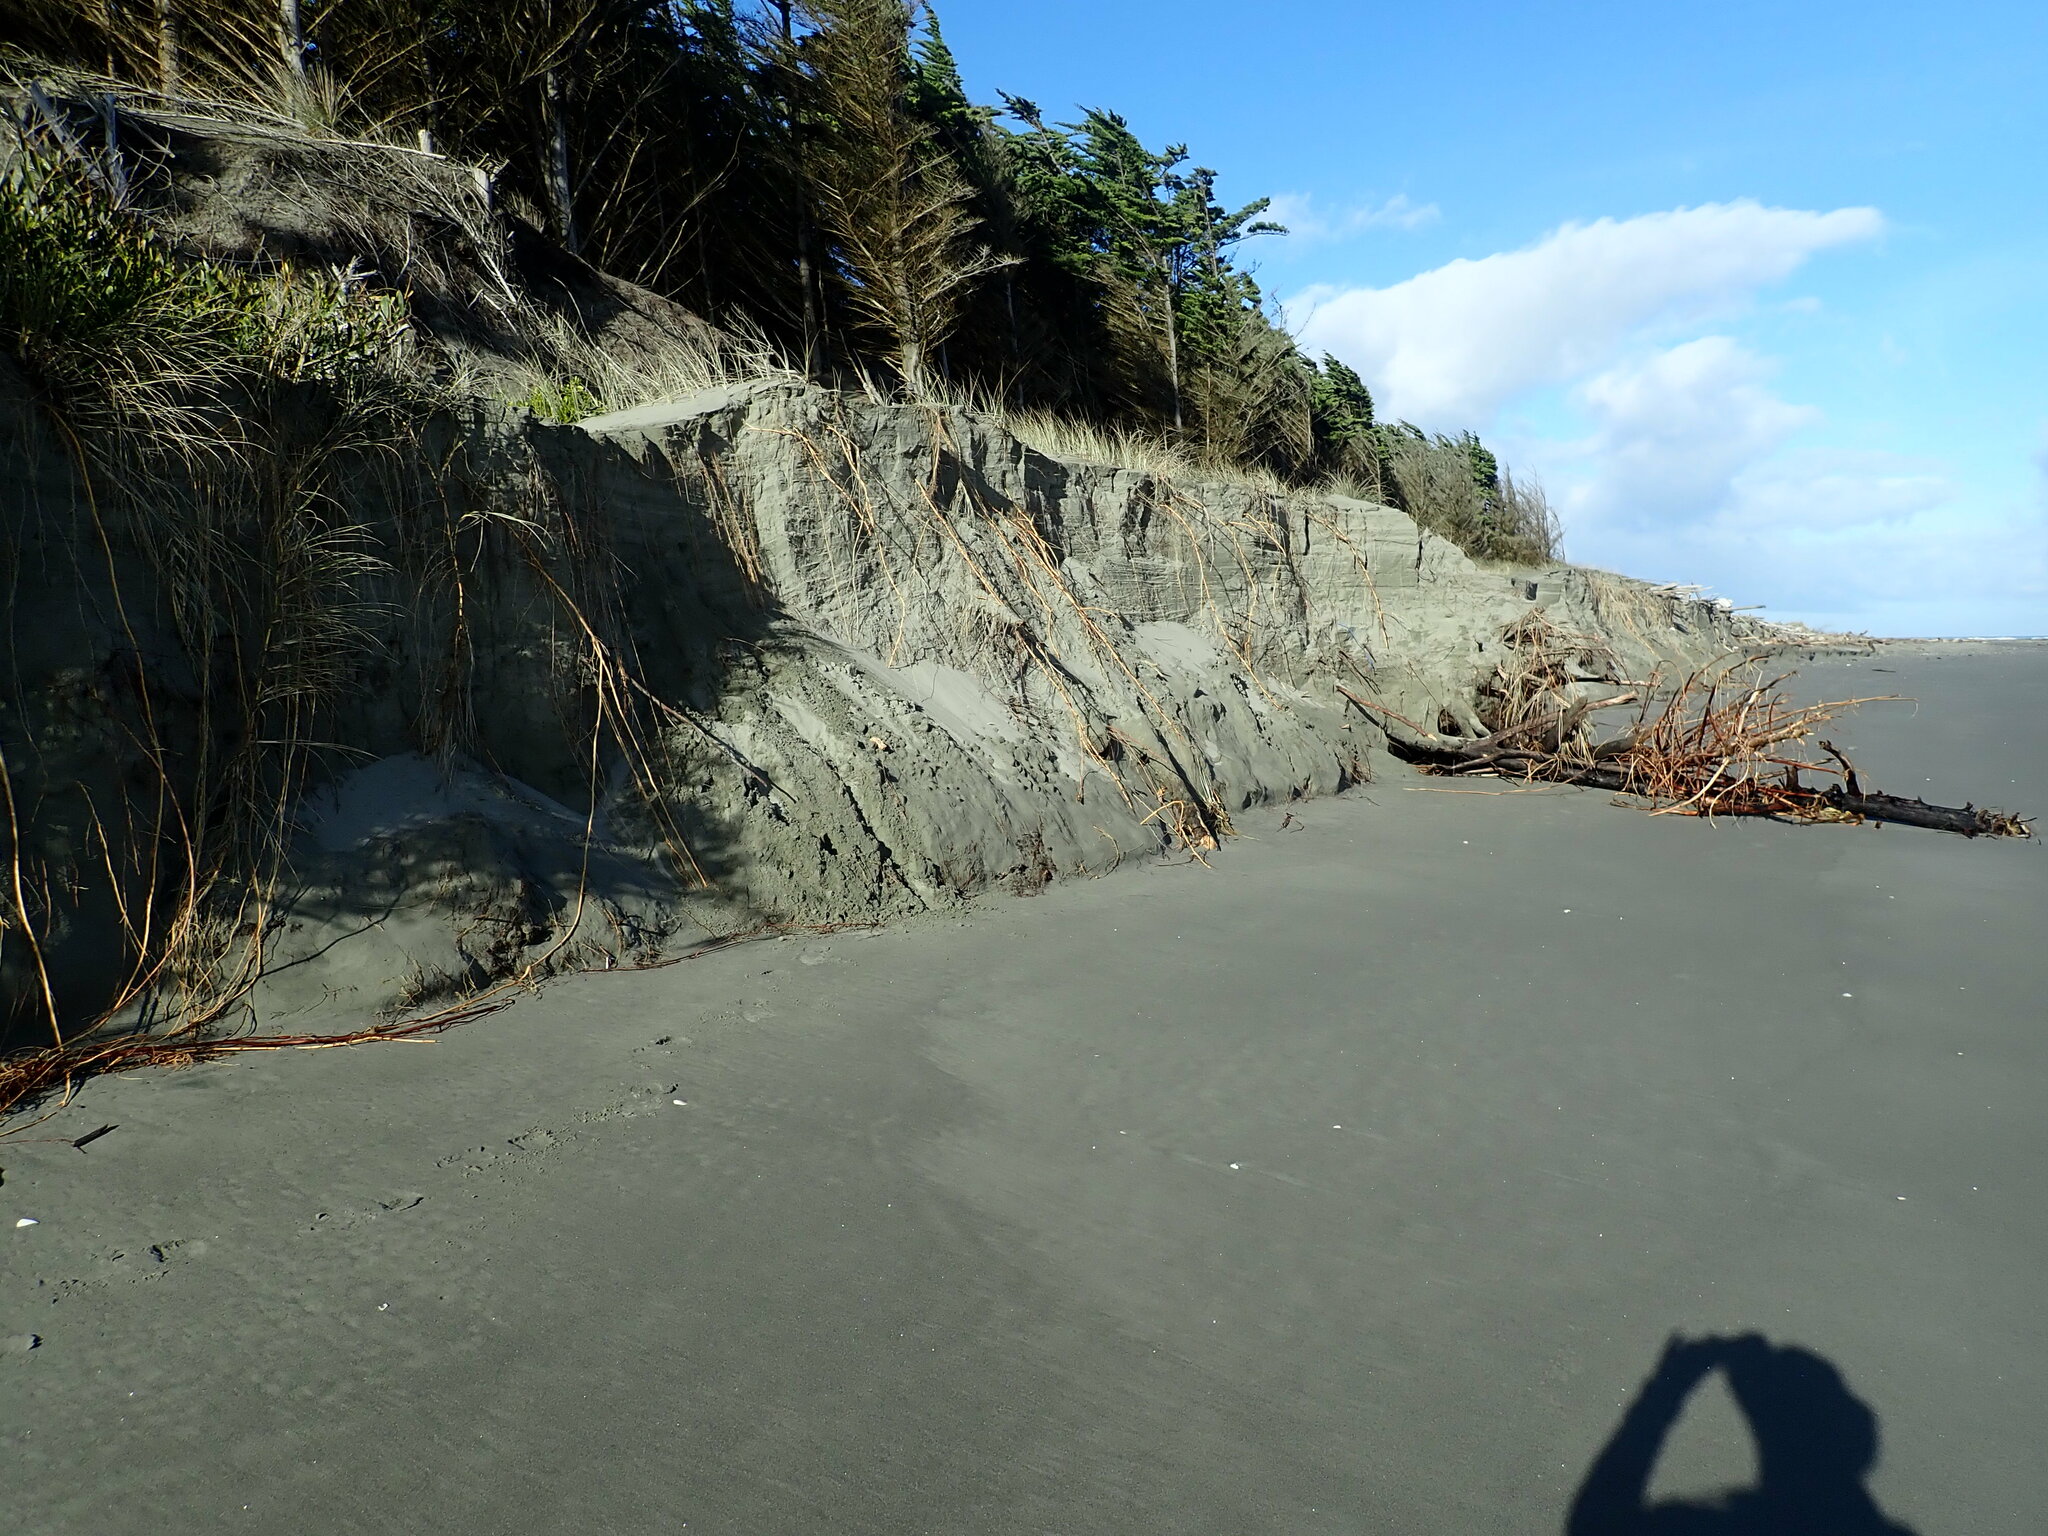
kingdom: Plantae
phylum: Tracheophyta
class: Liliopsida
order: Poales
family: Poaceae
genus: Spinifex
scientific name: Spinifex sericeus
